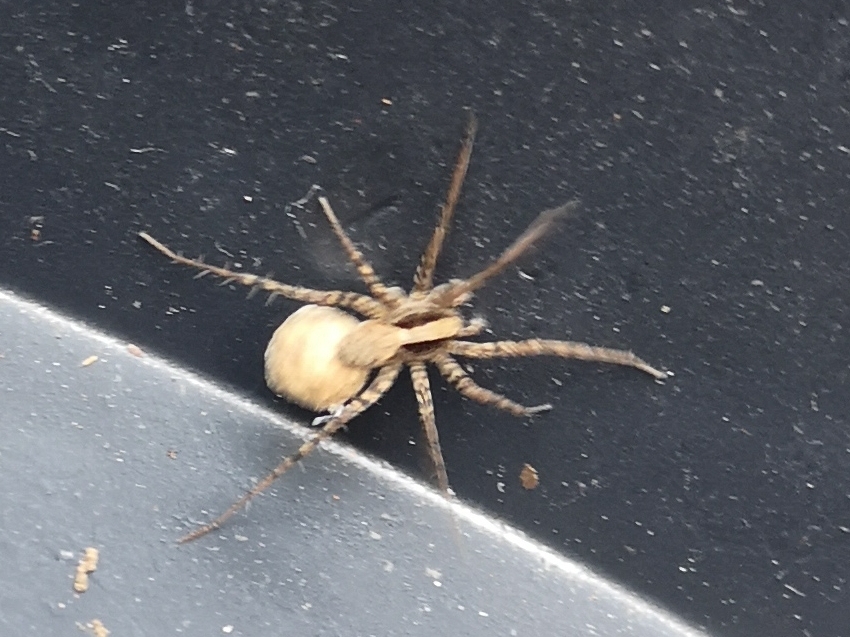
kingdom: Animalia
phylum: Arthropoda
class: Arachnida
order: Araneae
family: Lycosidae
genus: Pardosa
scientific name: Pardosa
